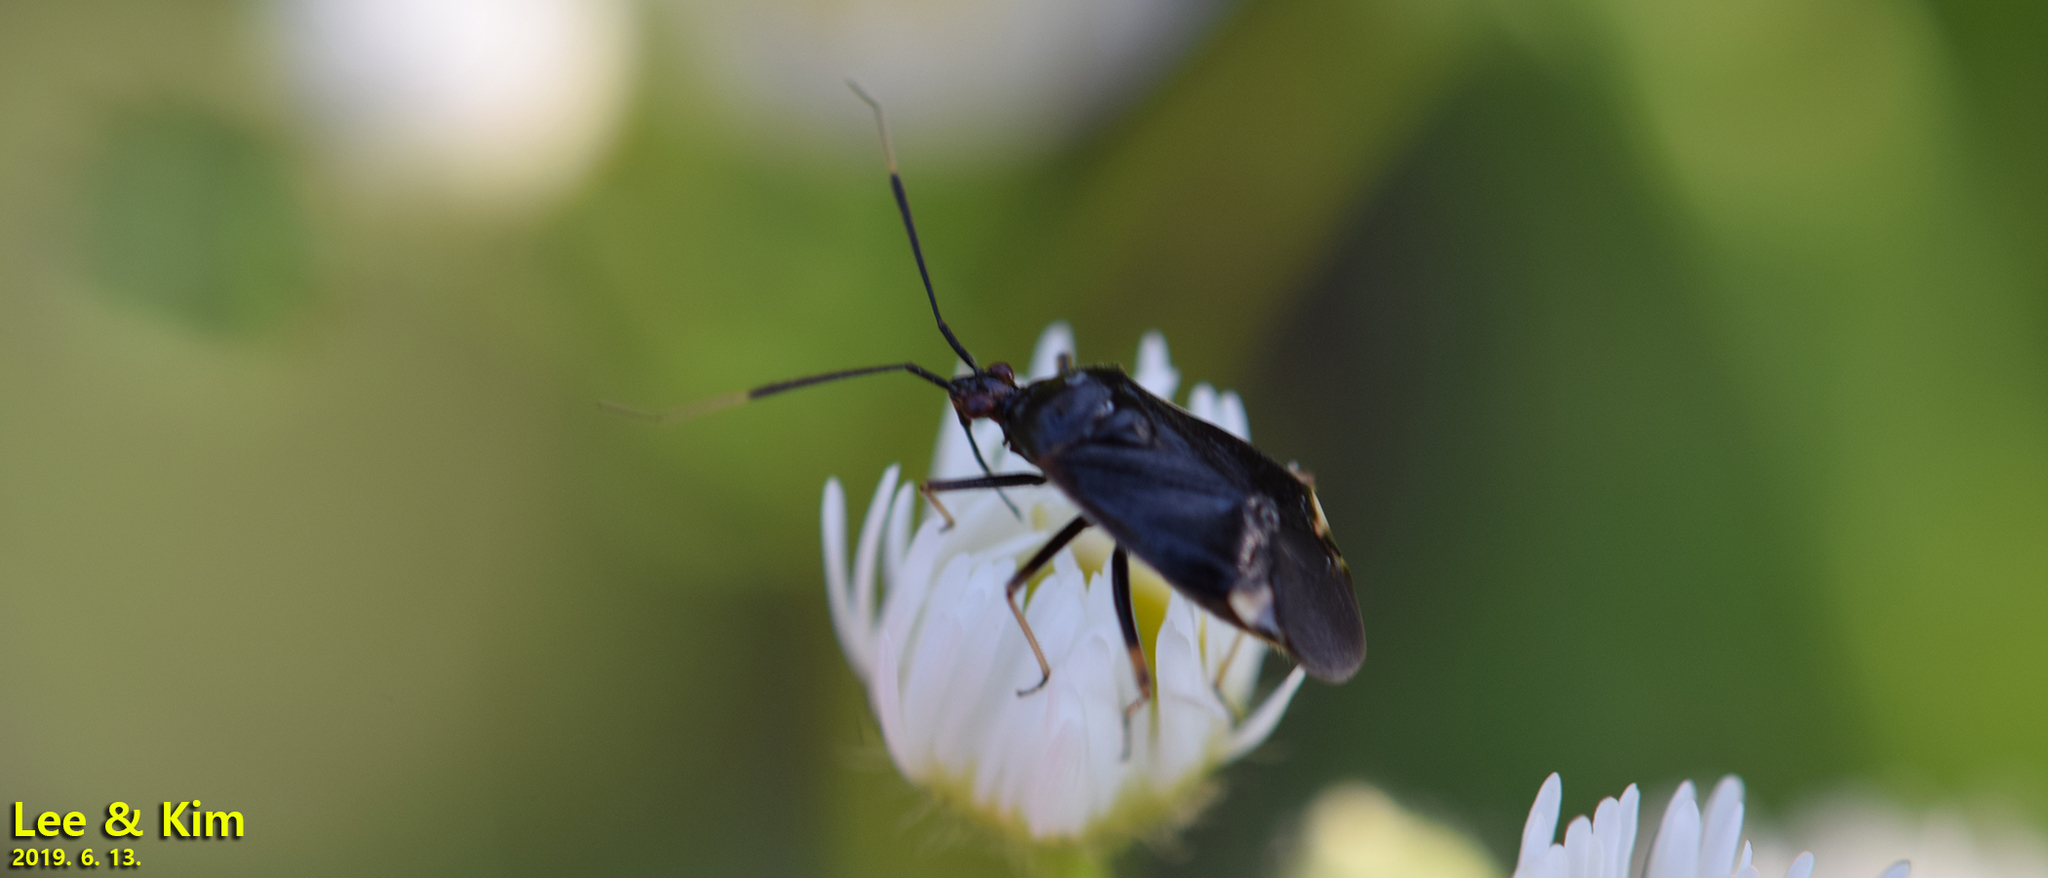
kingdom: Animalia
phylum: Arthropoda
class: Insecta
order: Hemiptera
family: Miridae
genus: Deraeocoris
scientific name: Deraeocoris ater
